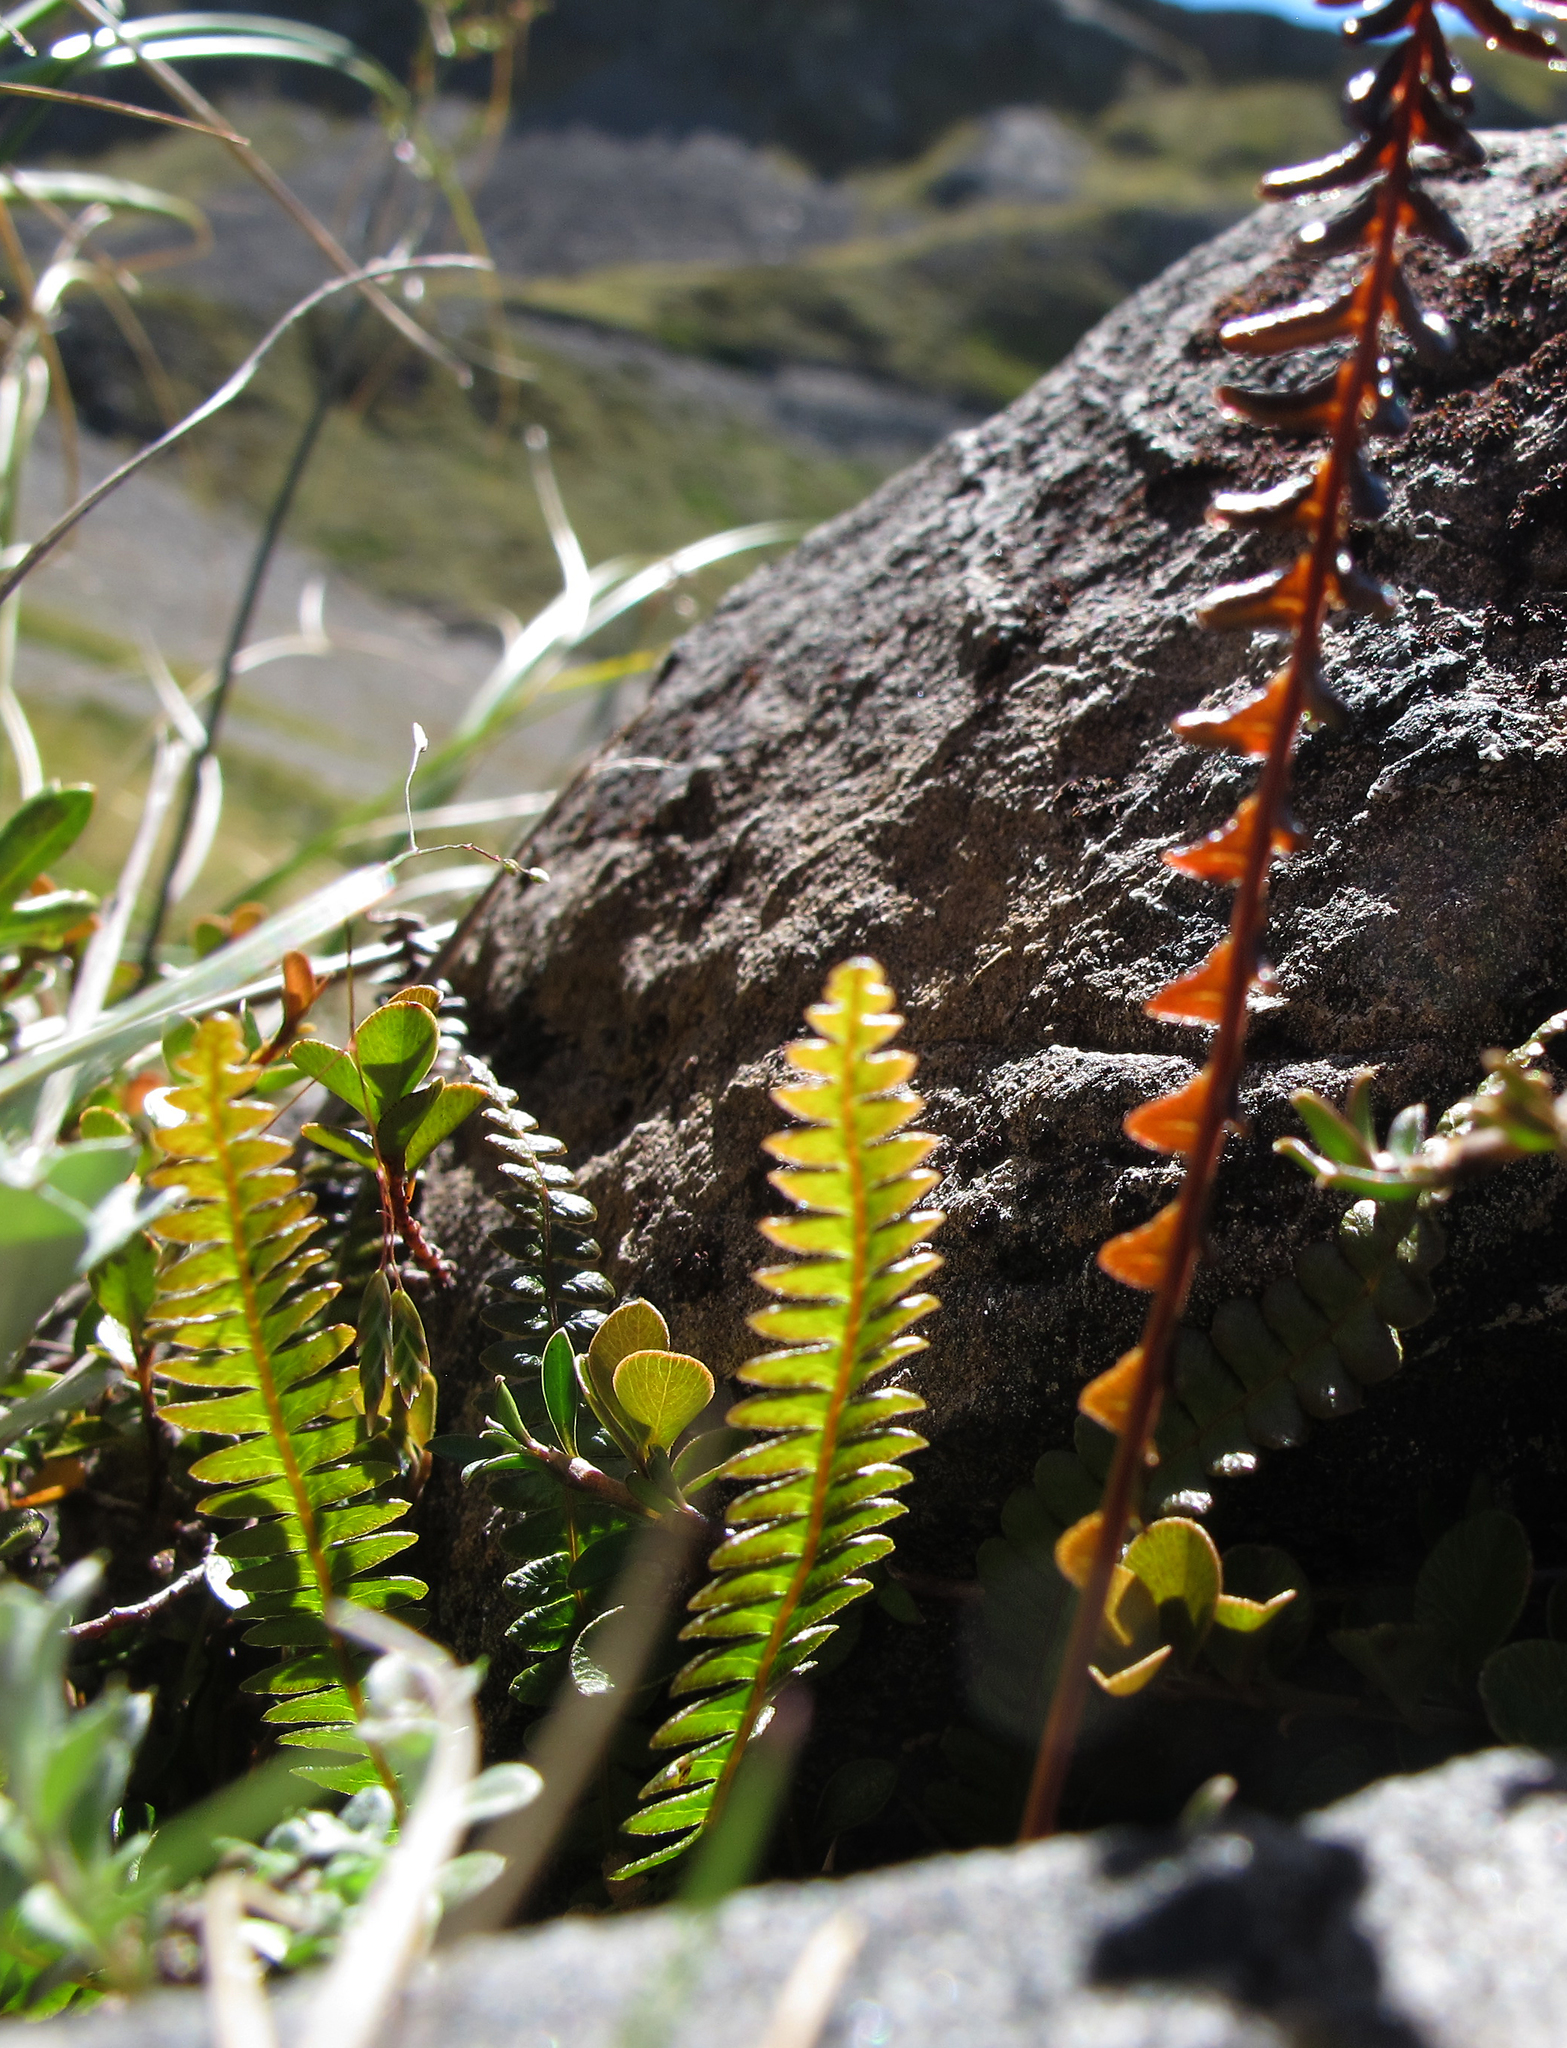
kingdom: Plantae
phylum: Tracheophyta
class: Polypodiopsida
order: Polypodiales
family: Blechnaceae
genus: Austroblechnum
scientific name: Austroblechnum penna-marina
